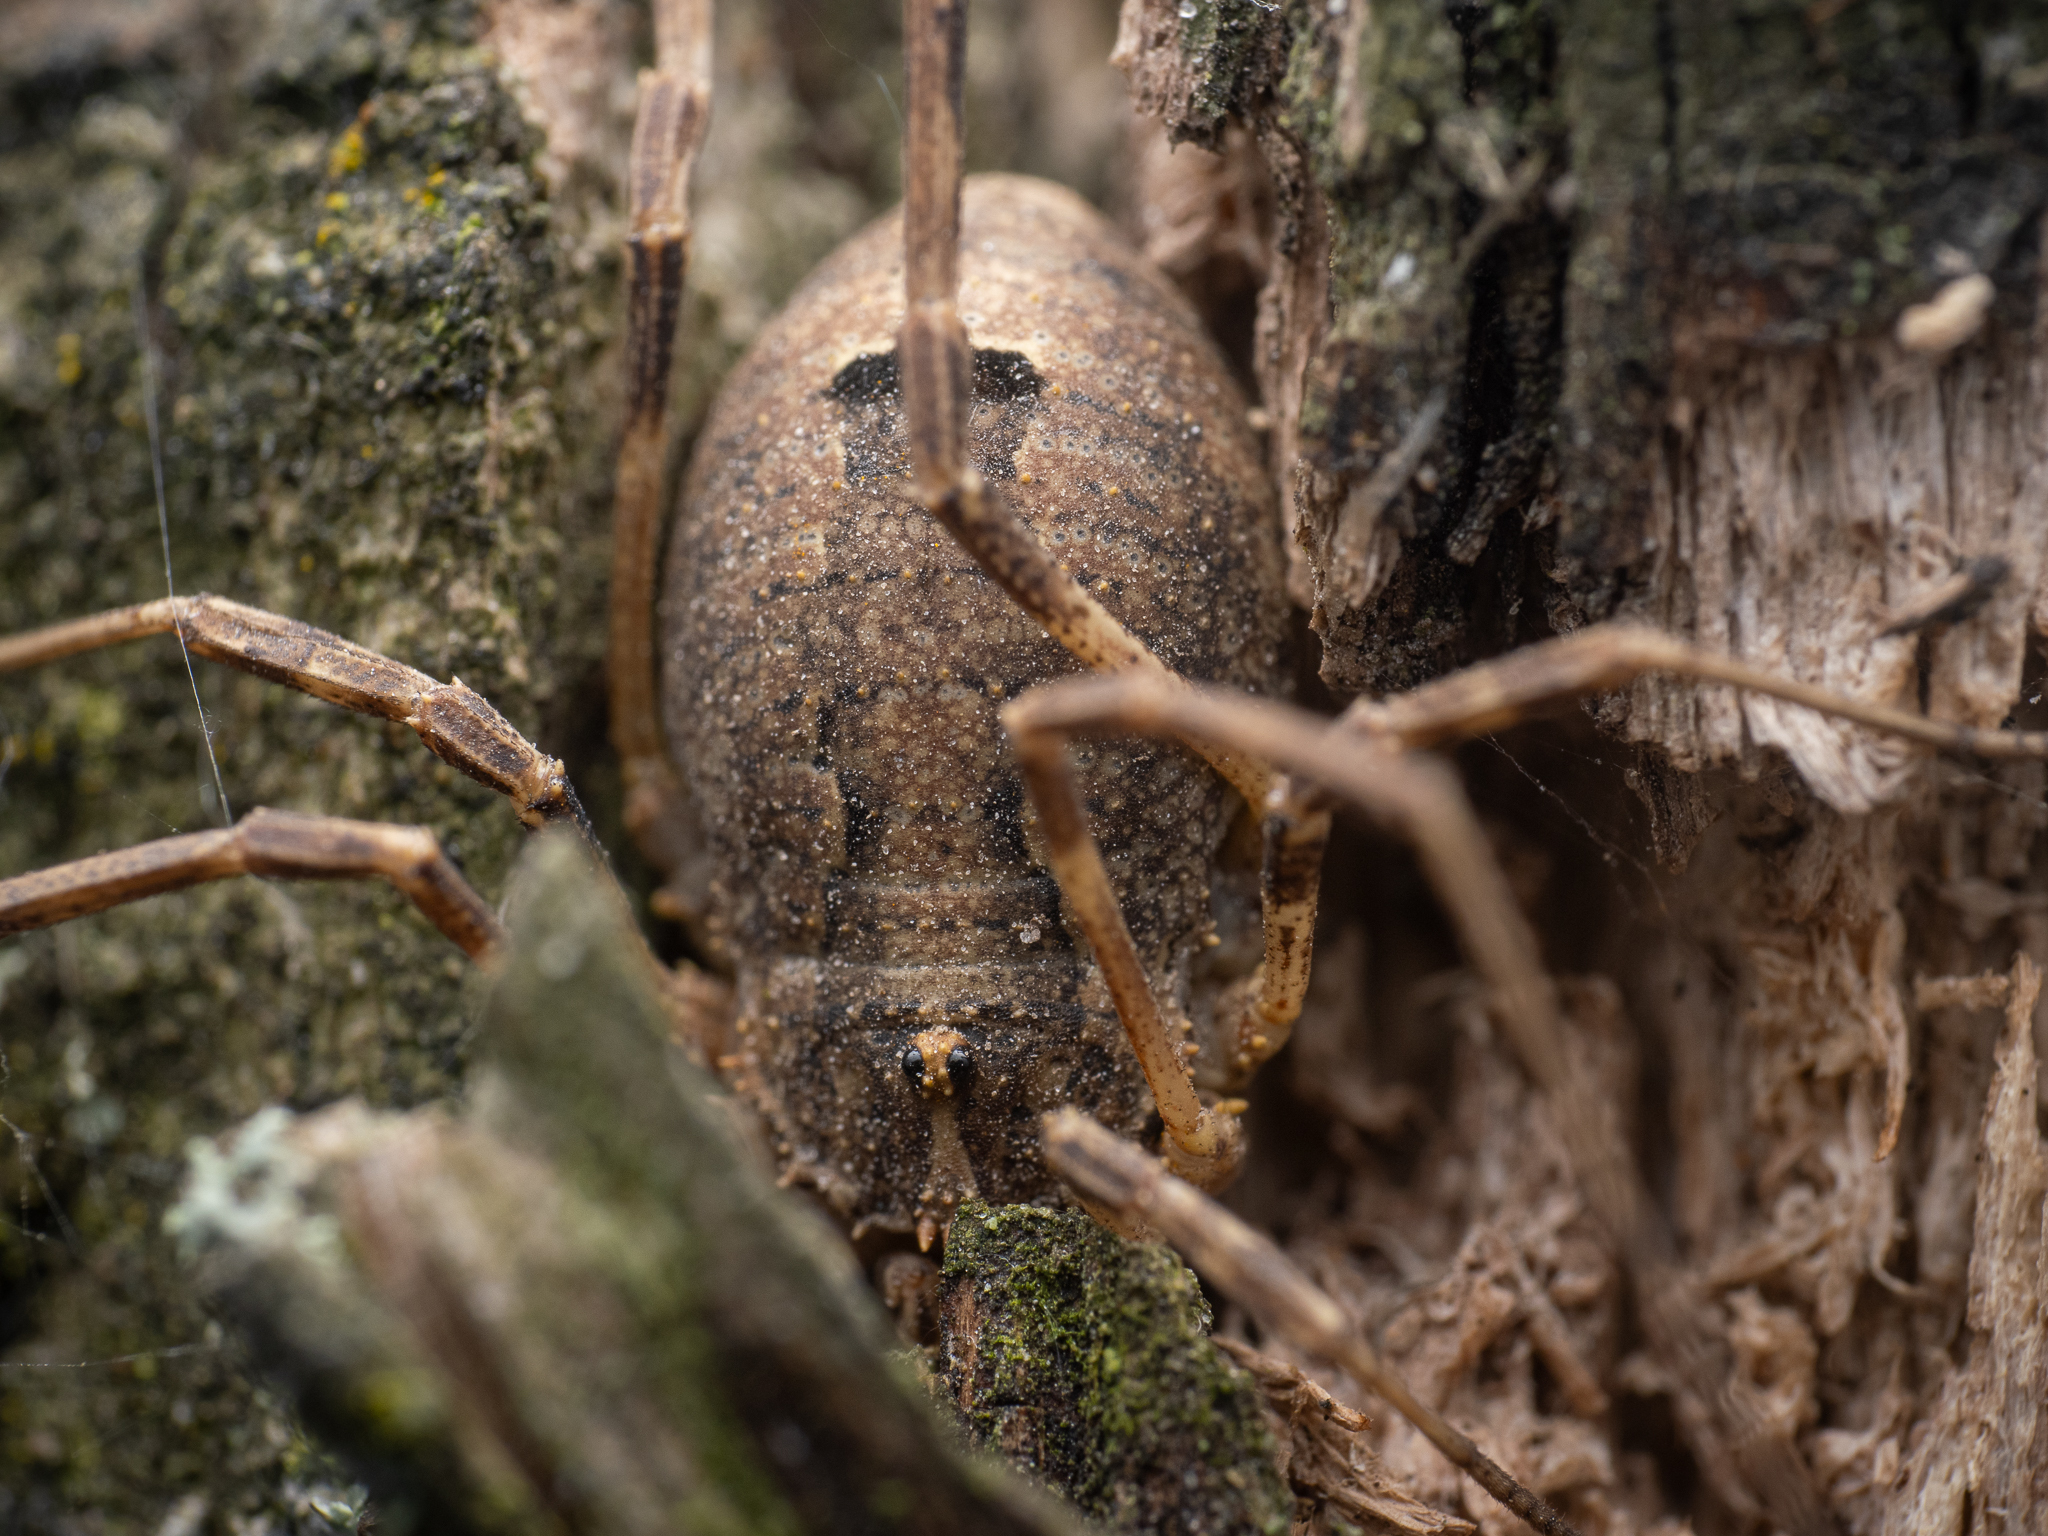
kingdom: Animalia
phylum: Arthropoda
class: Arachnida
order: Opiliones
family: Phalangiidae
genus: Odiellus
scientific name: Odiellus spinosus
